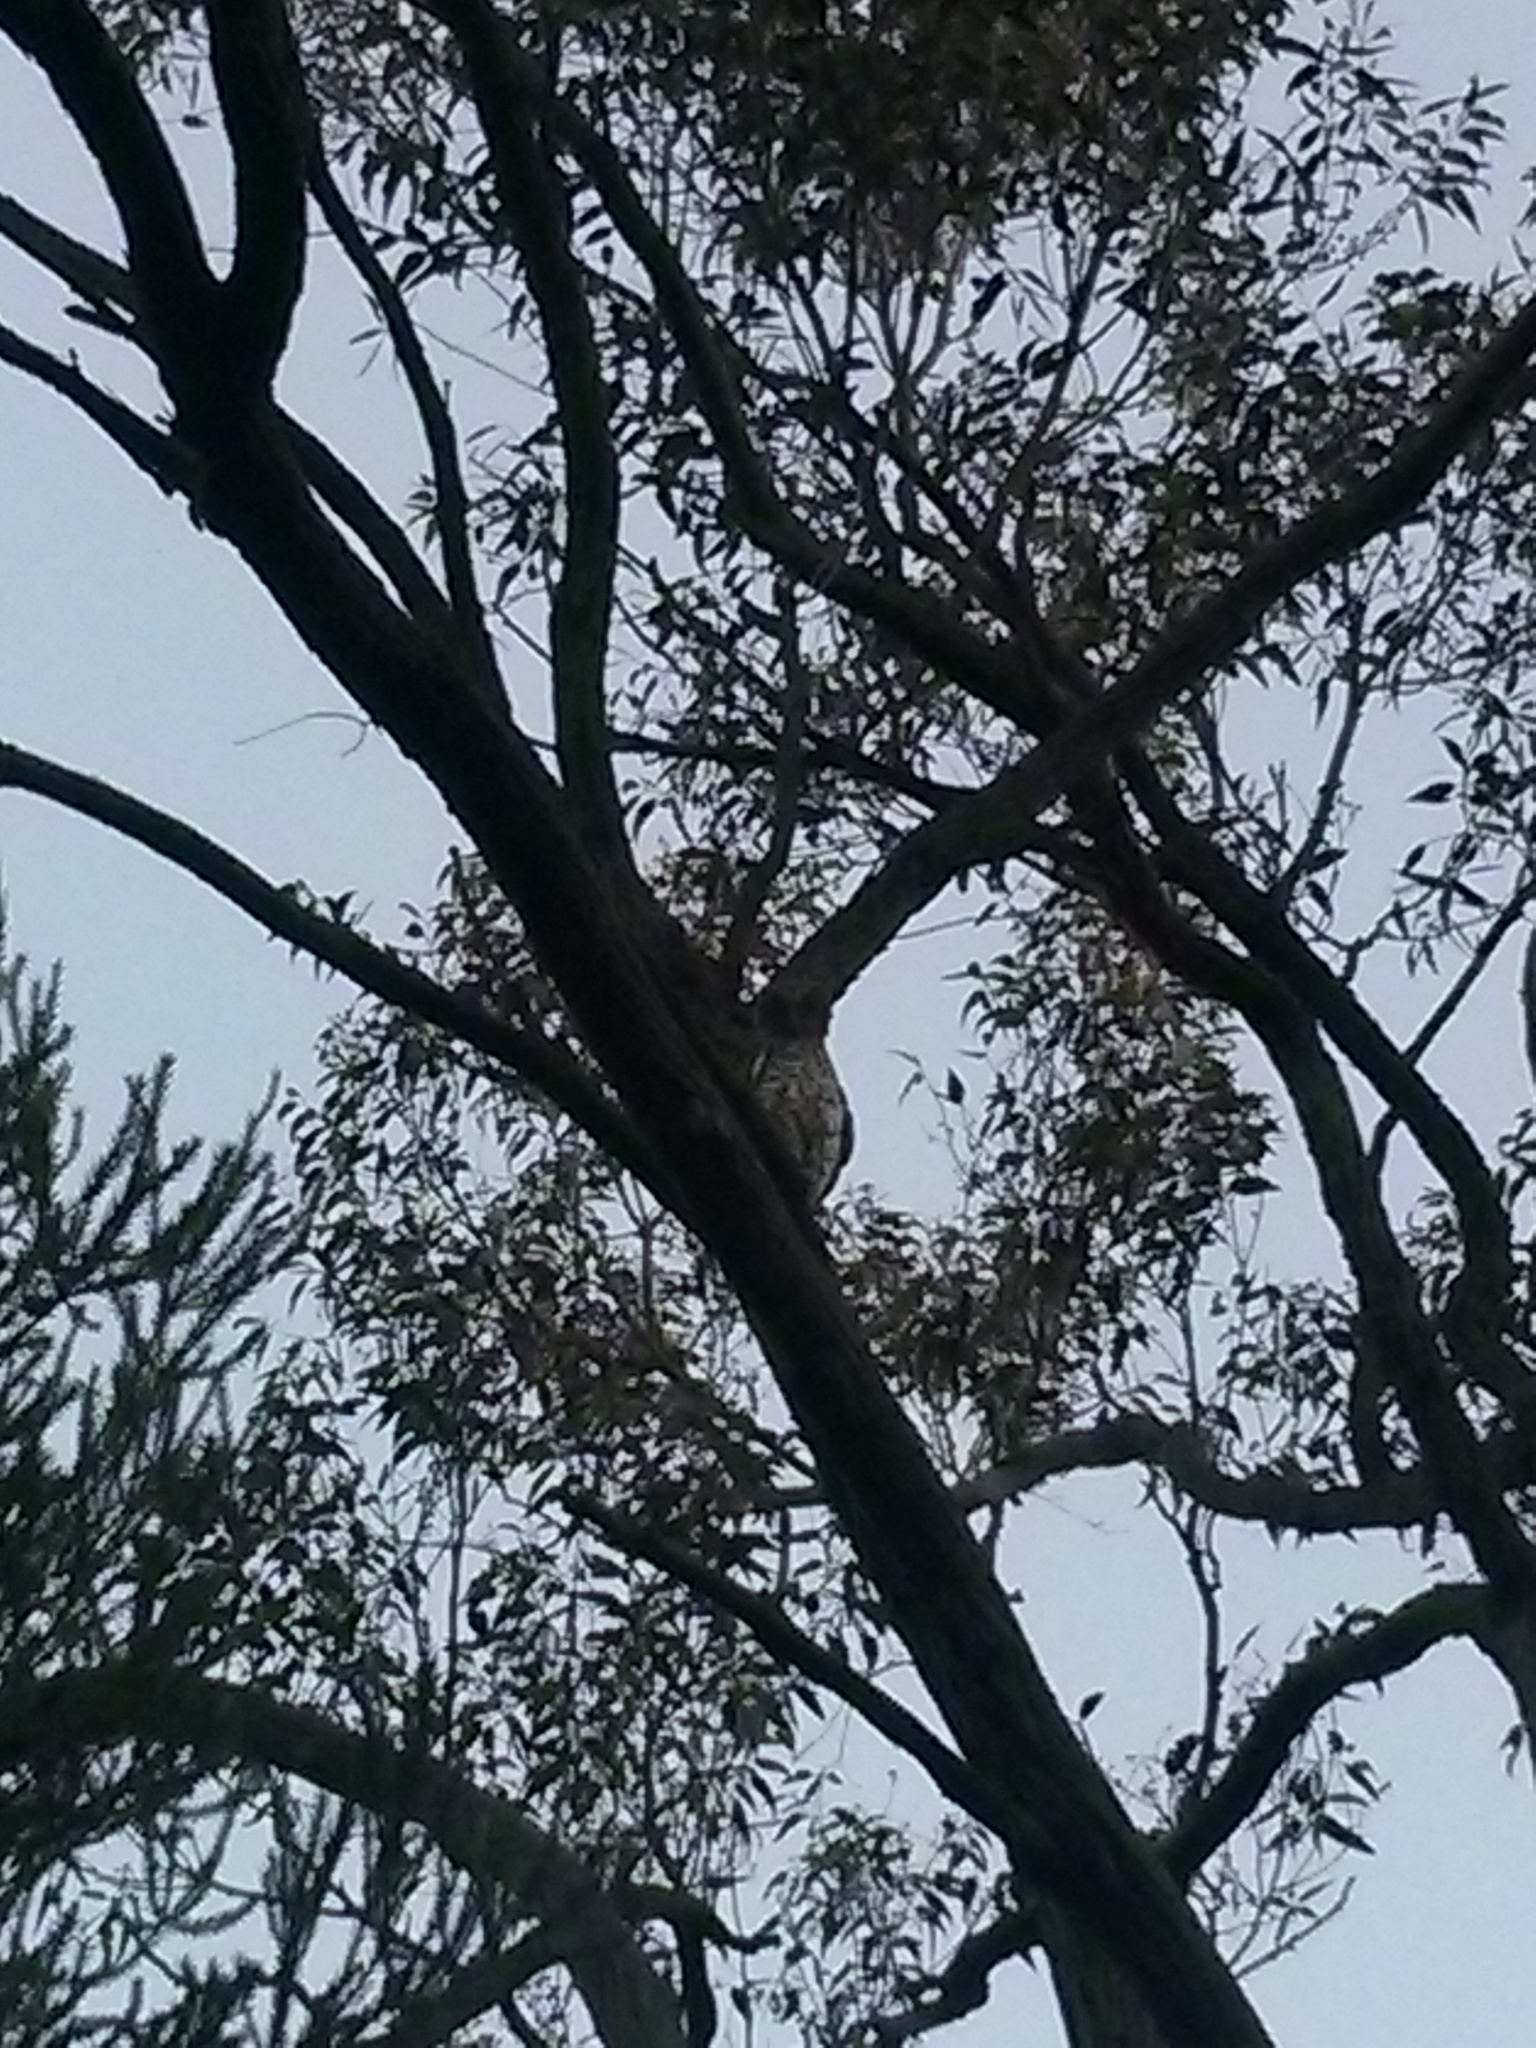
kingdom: Animalia
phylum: Chordata
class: Aves
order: Strigiformes
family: Strigidae
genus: Ninox
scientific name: Ninox strenua
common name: Powerful owl
